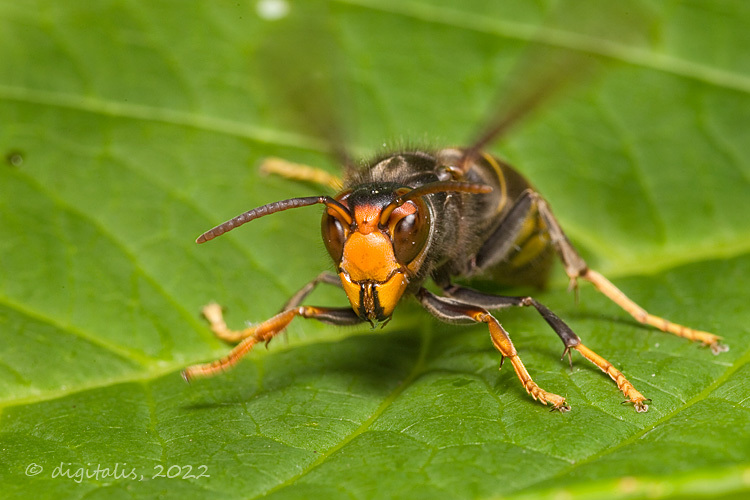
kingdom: Animalia
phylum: Arthropoda
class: Insecta
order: Hymenoptera
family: Vespidae
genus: Vespa
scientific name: Vespa velutina
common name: Asian hornet
